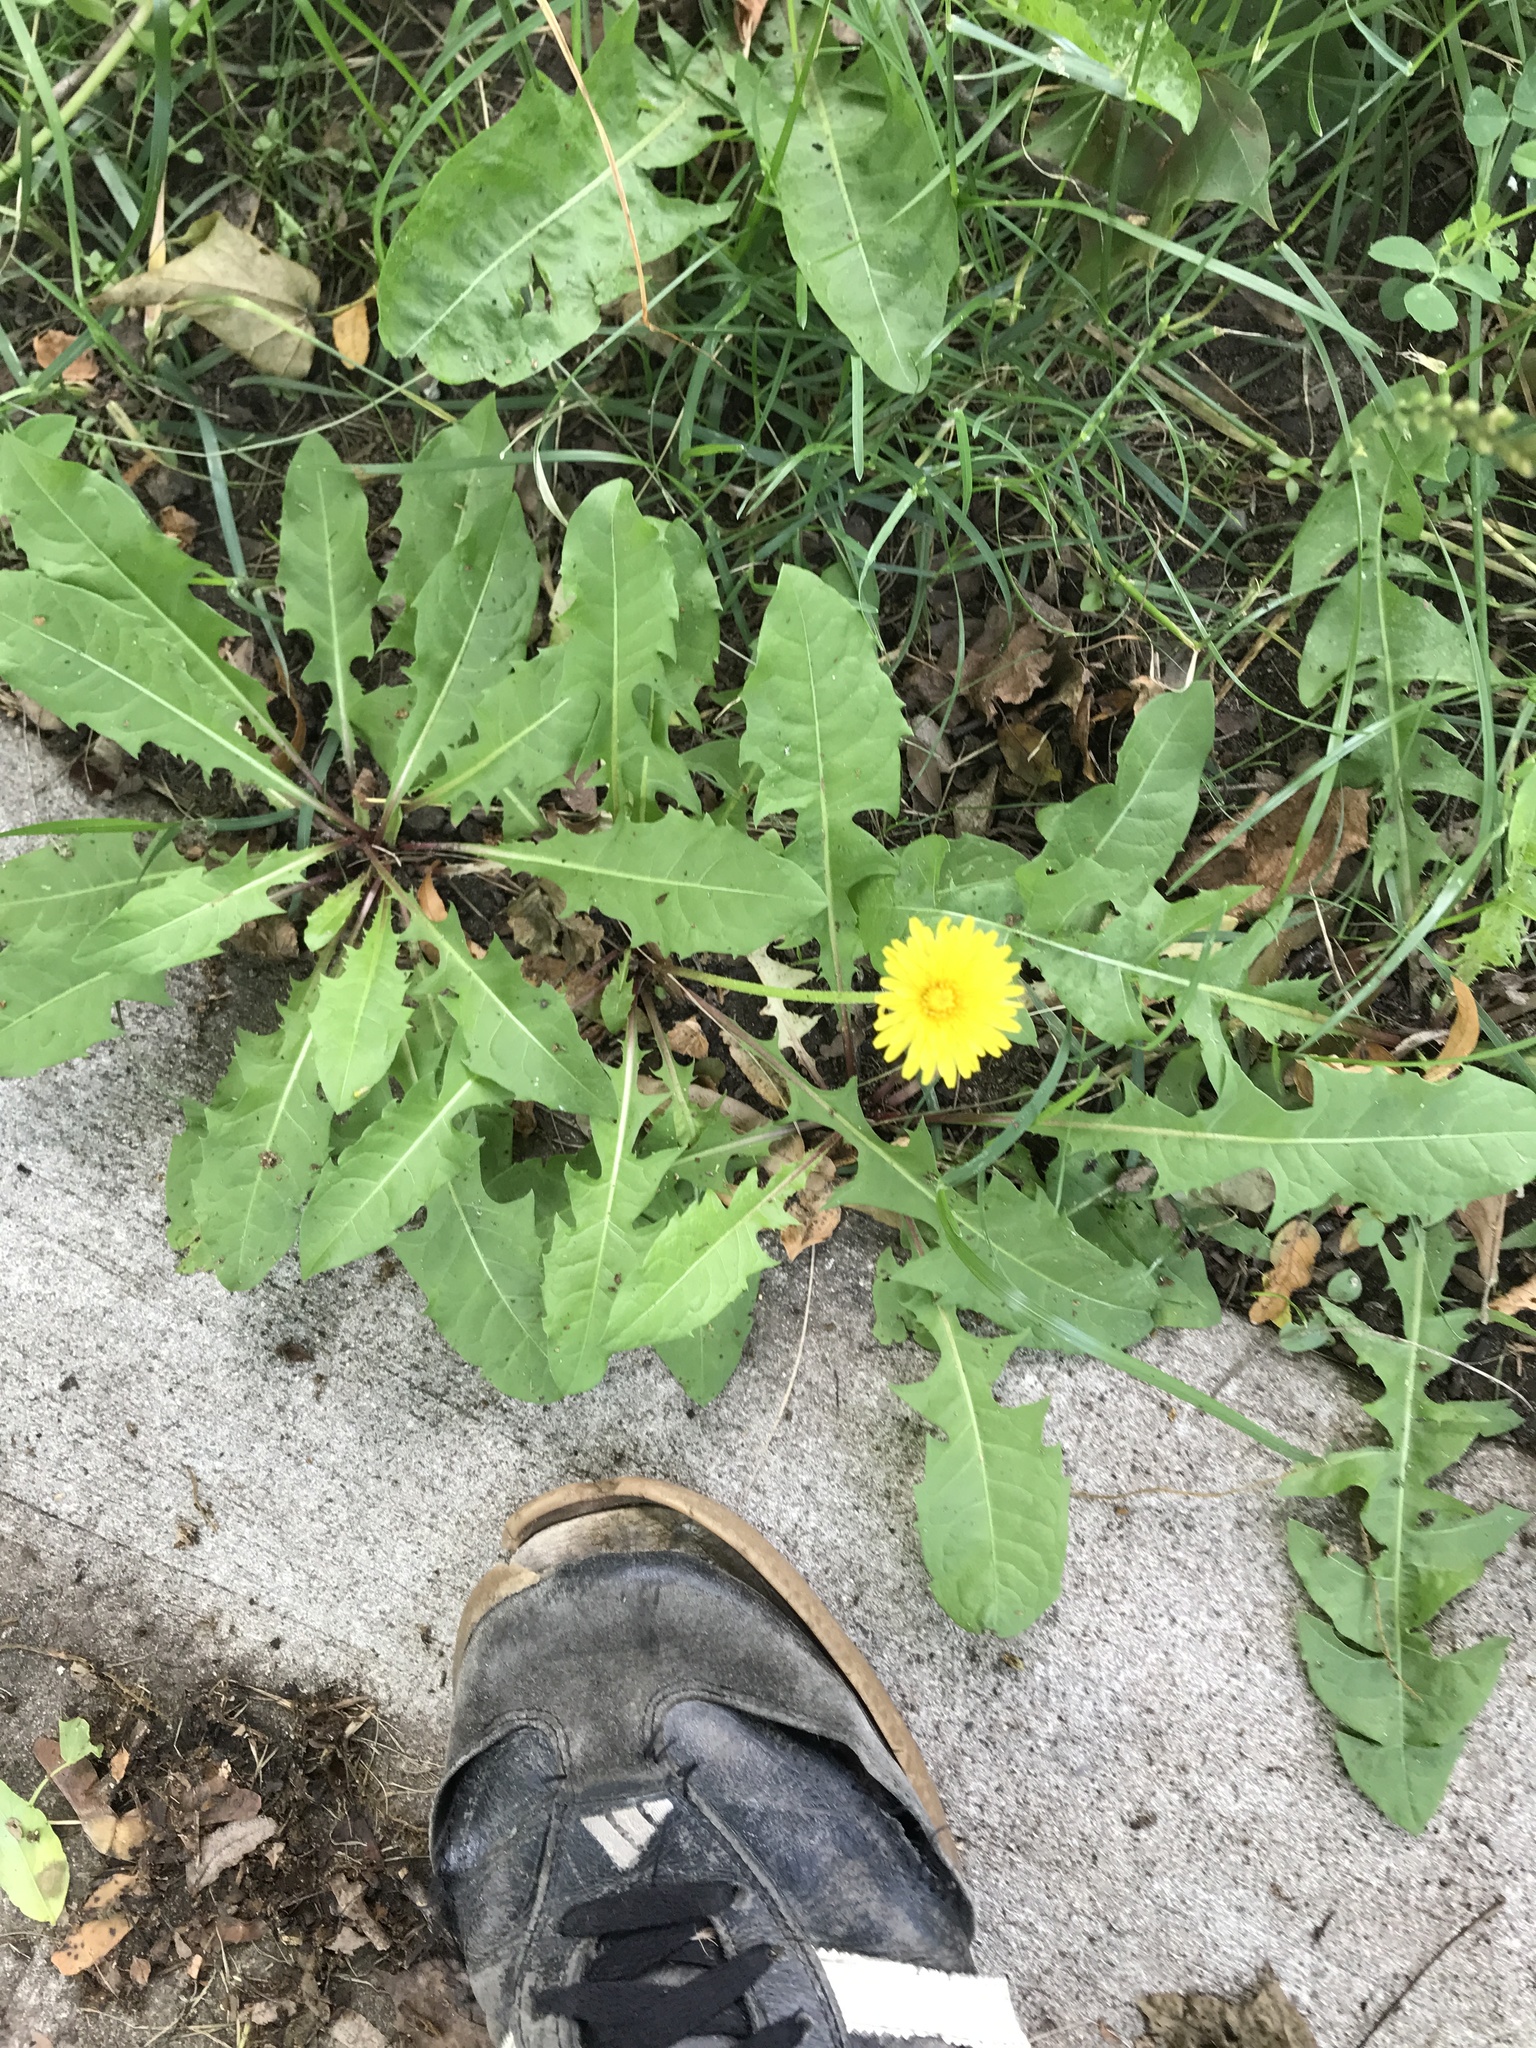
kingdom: Plantae
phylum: Tracheophyta
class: Magnoliopsida
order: Asterales
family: Asteraceae
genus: Taraxacum
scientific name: Taraxacum officinale
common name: Common dandelion
